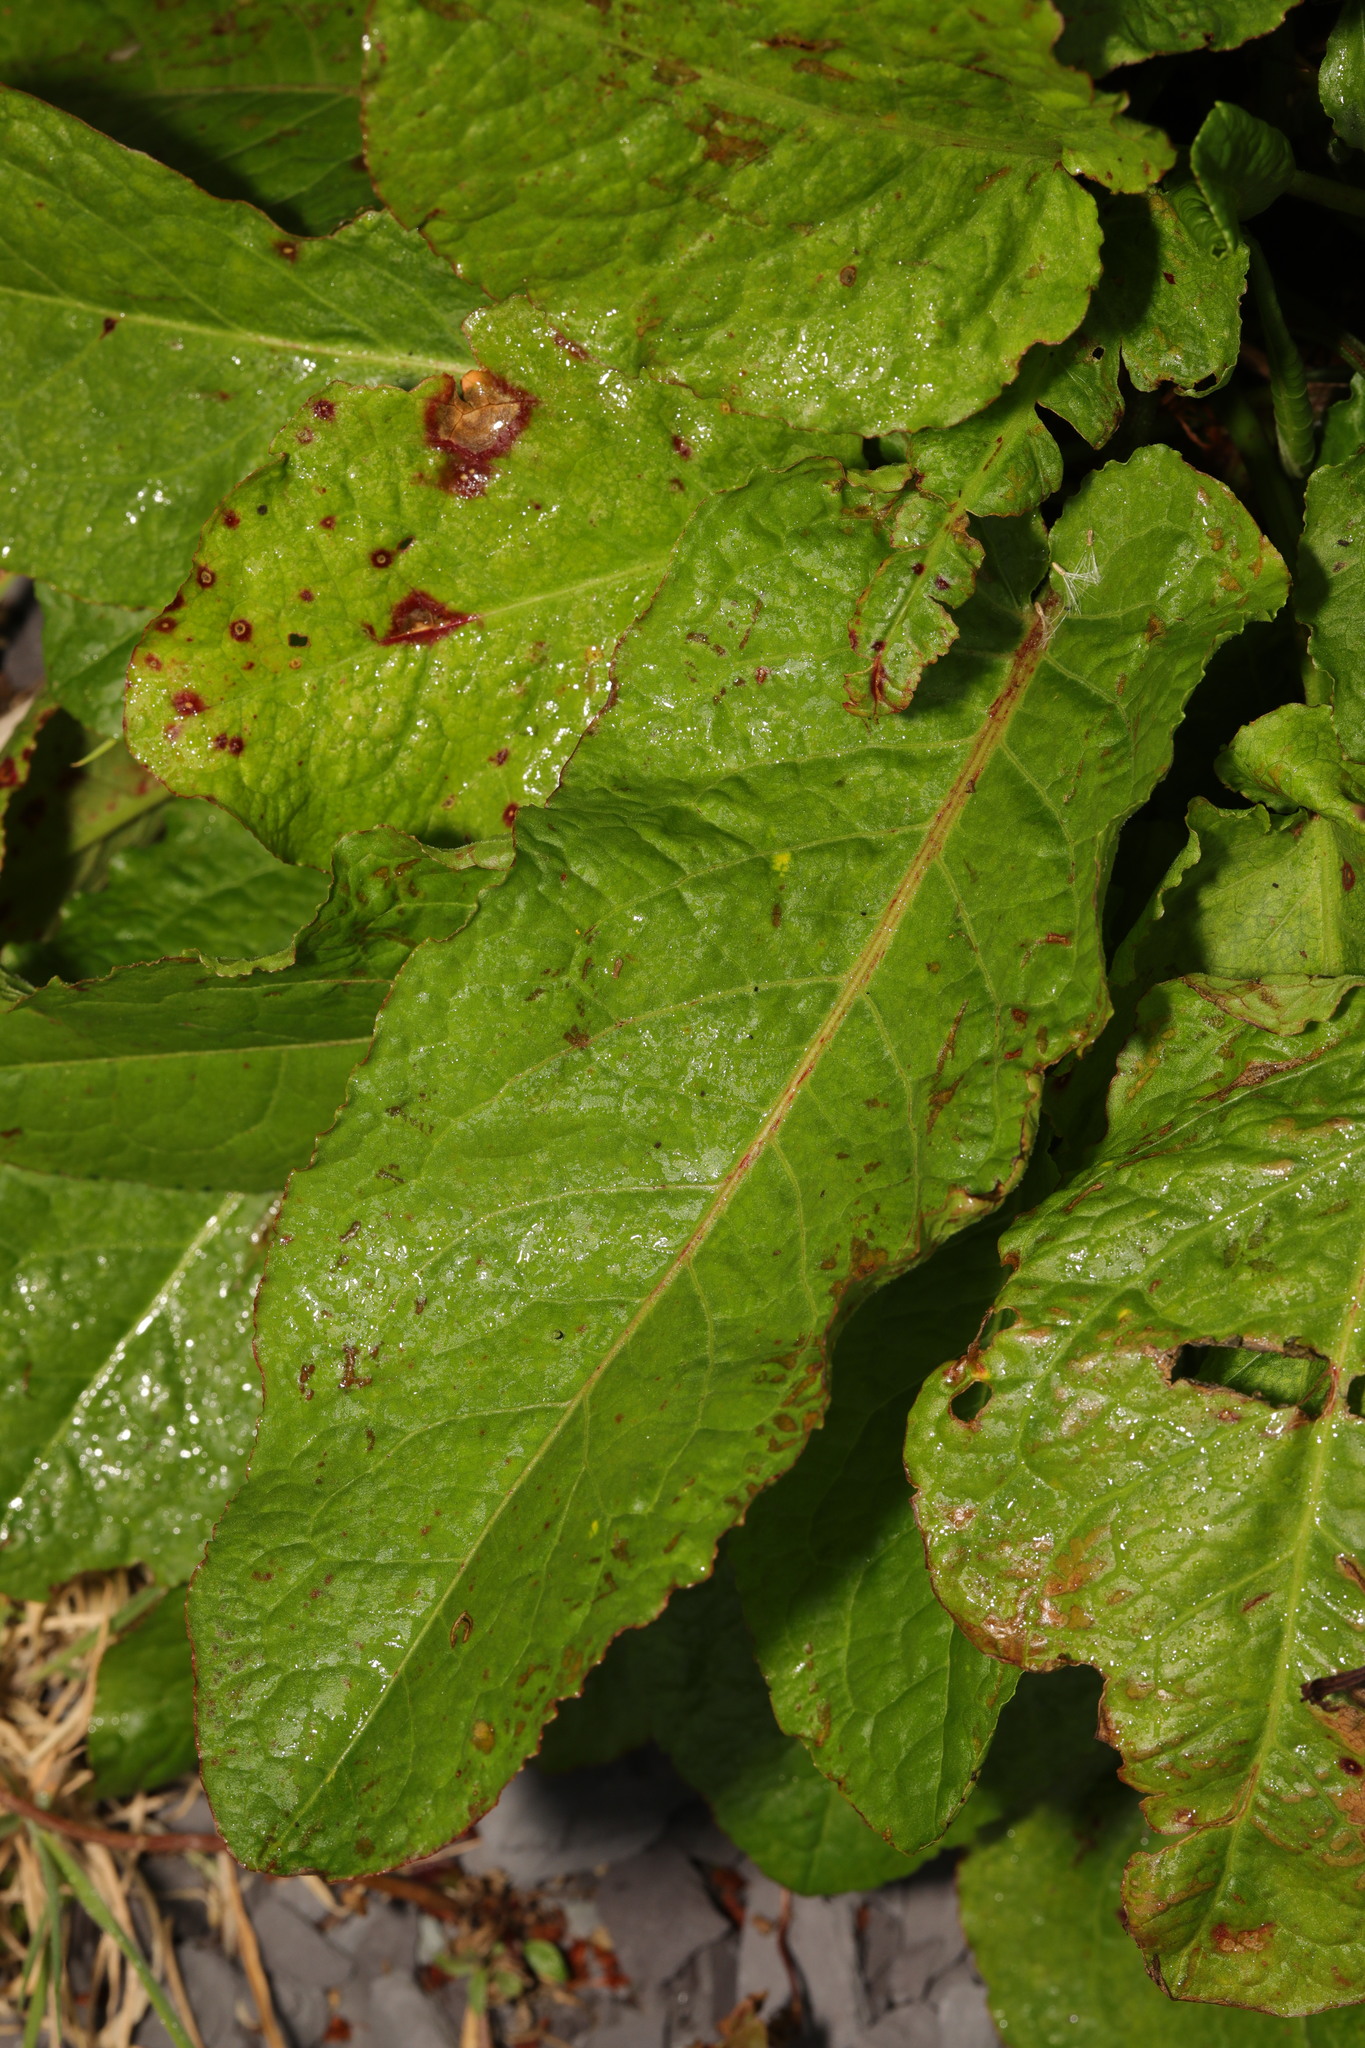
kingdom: Plantae
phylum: Tracheophyta
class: Magnoliopsida
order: Caryophyllales
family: Polygonaceae
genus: Rumex
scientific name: Rumex obtusifolius
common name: Bitter dock
